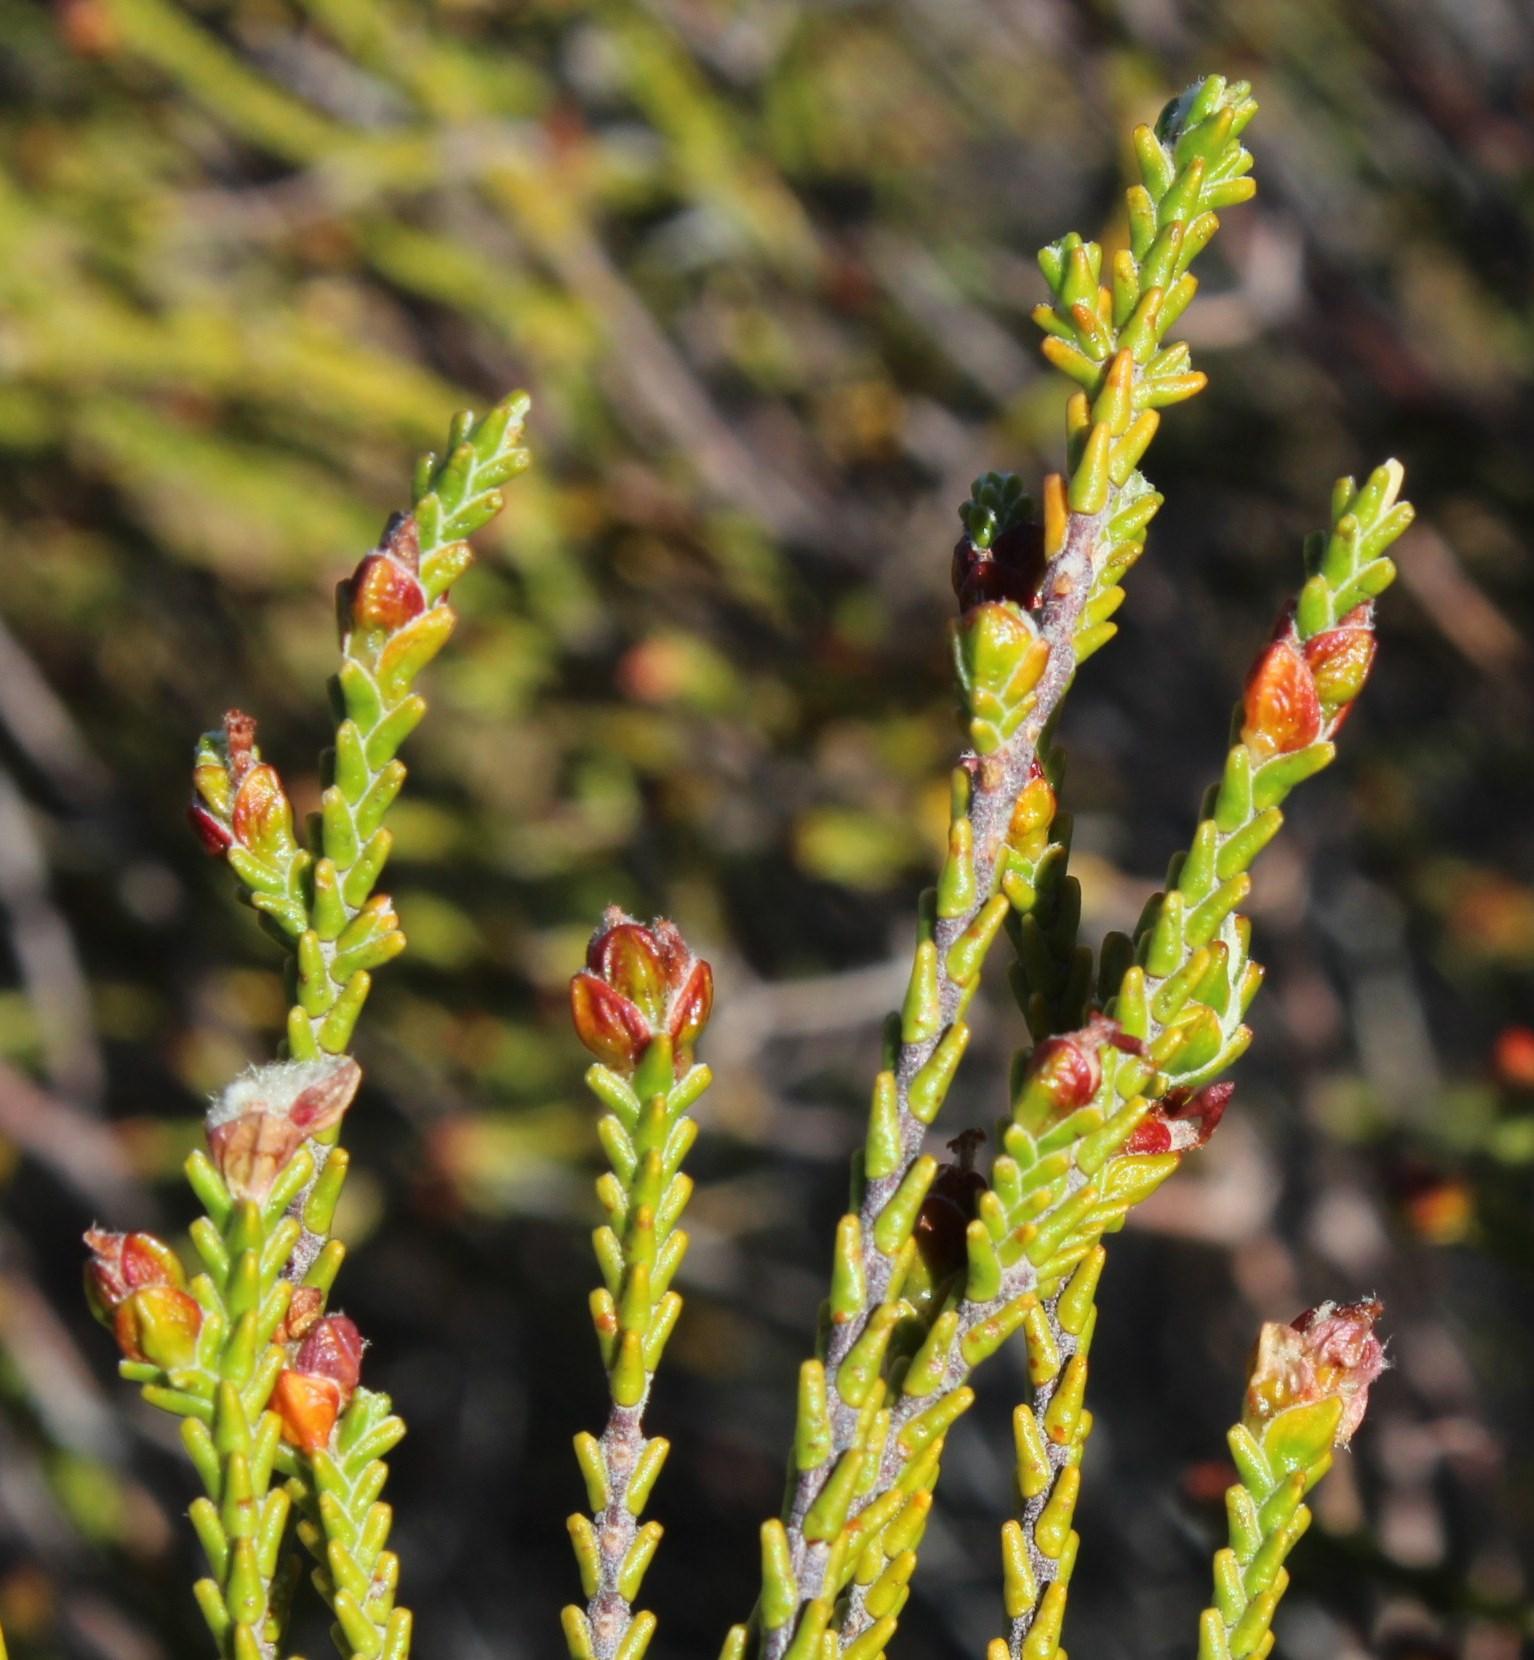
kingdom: Plantae
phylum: Tracheophyta
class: Magnoliopsida
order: Malvales
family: Thymelaeaceae
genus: Passerina
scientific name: Passerina truncata
